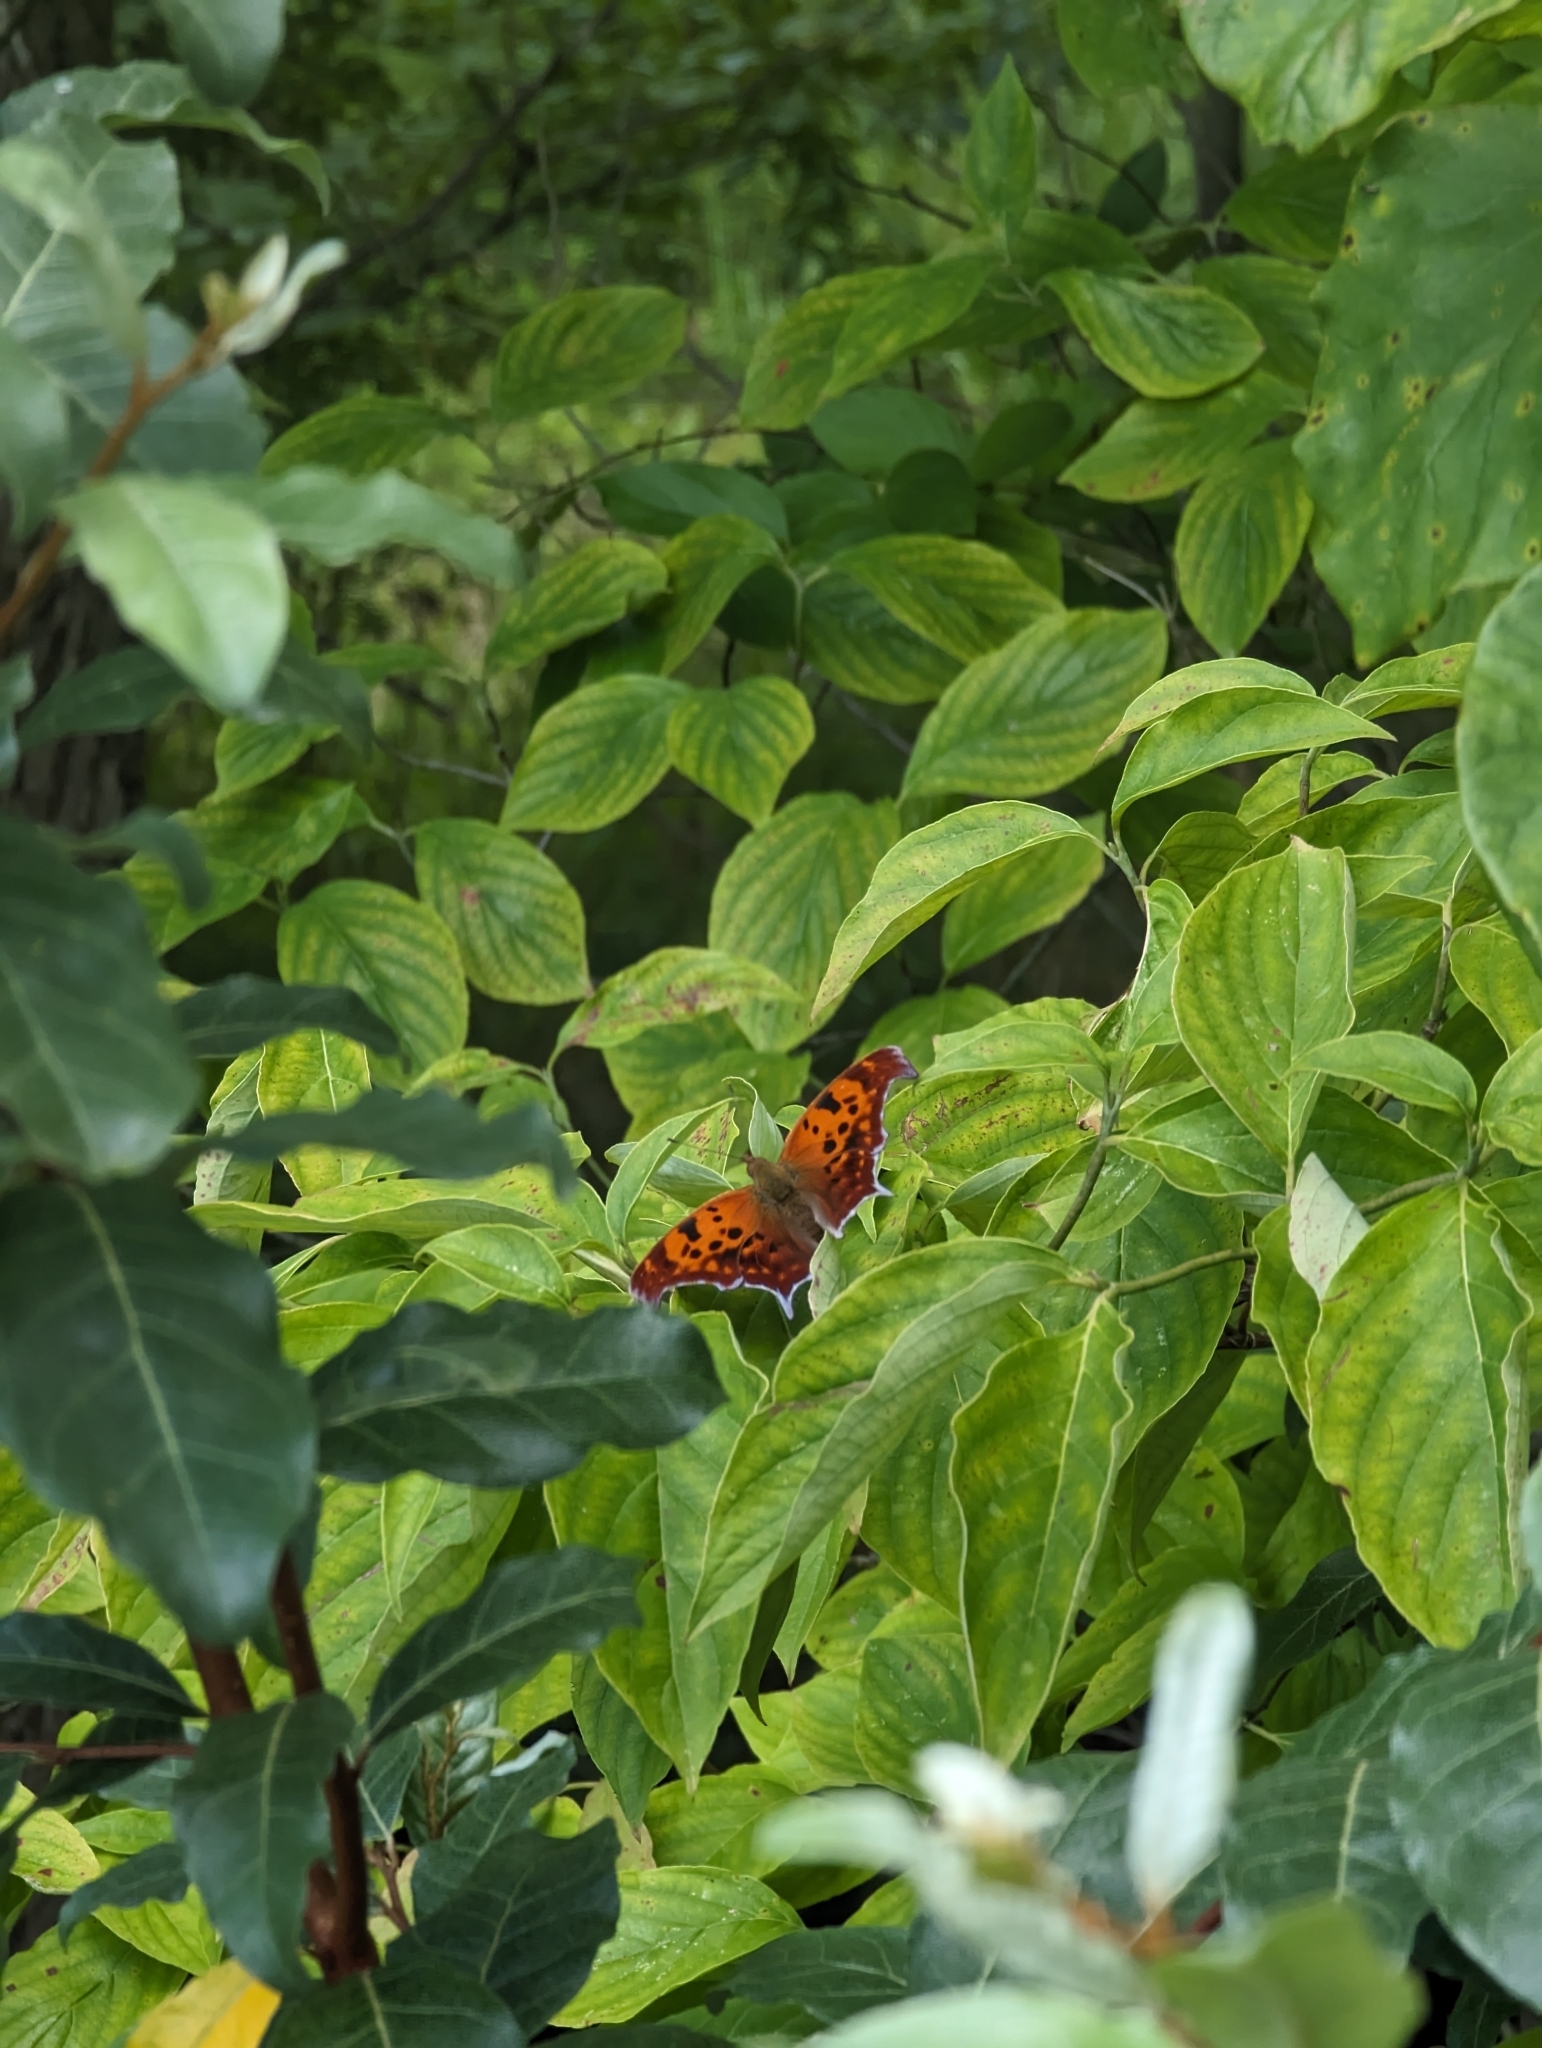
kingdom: Animalia
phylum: Arthropoda
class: Insecta
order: Lepidoptera
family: Nymphalidae
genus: Polygonia
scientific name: Polygonia interrogationis
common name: Question mark
